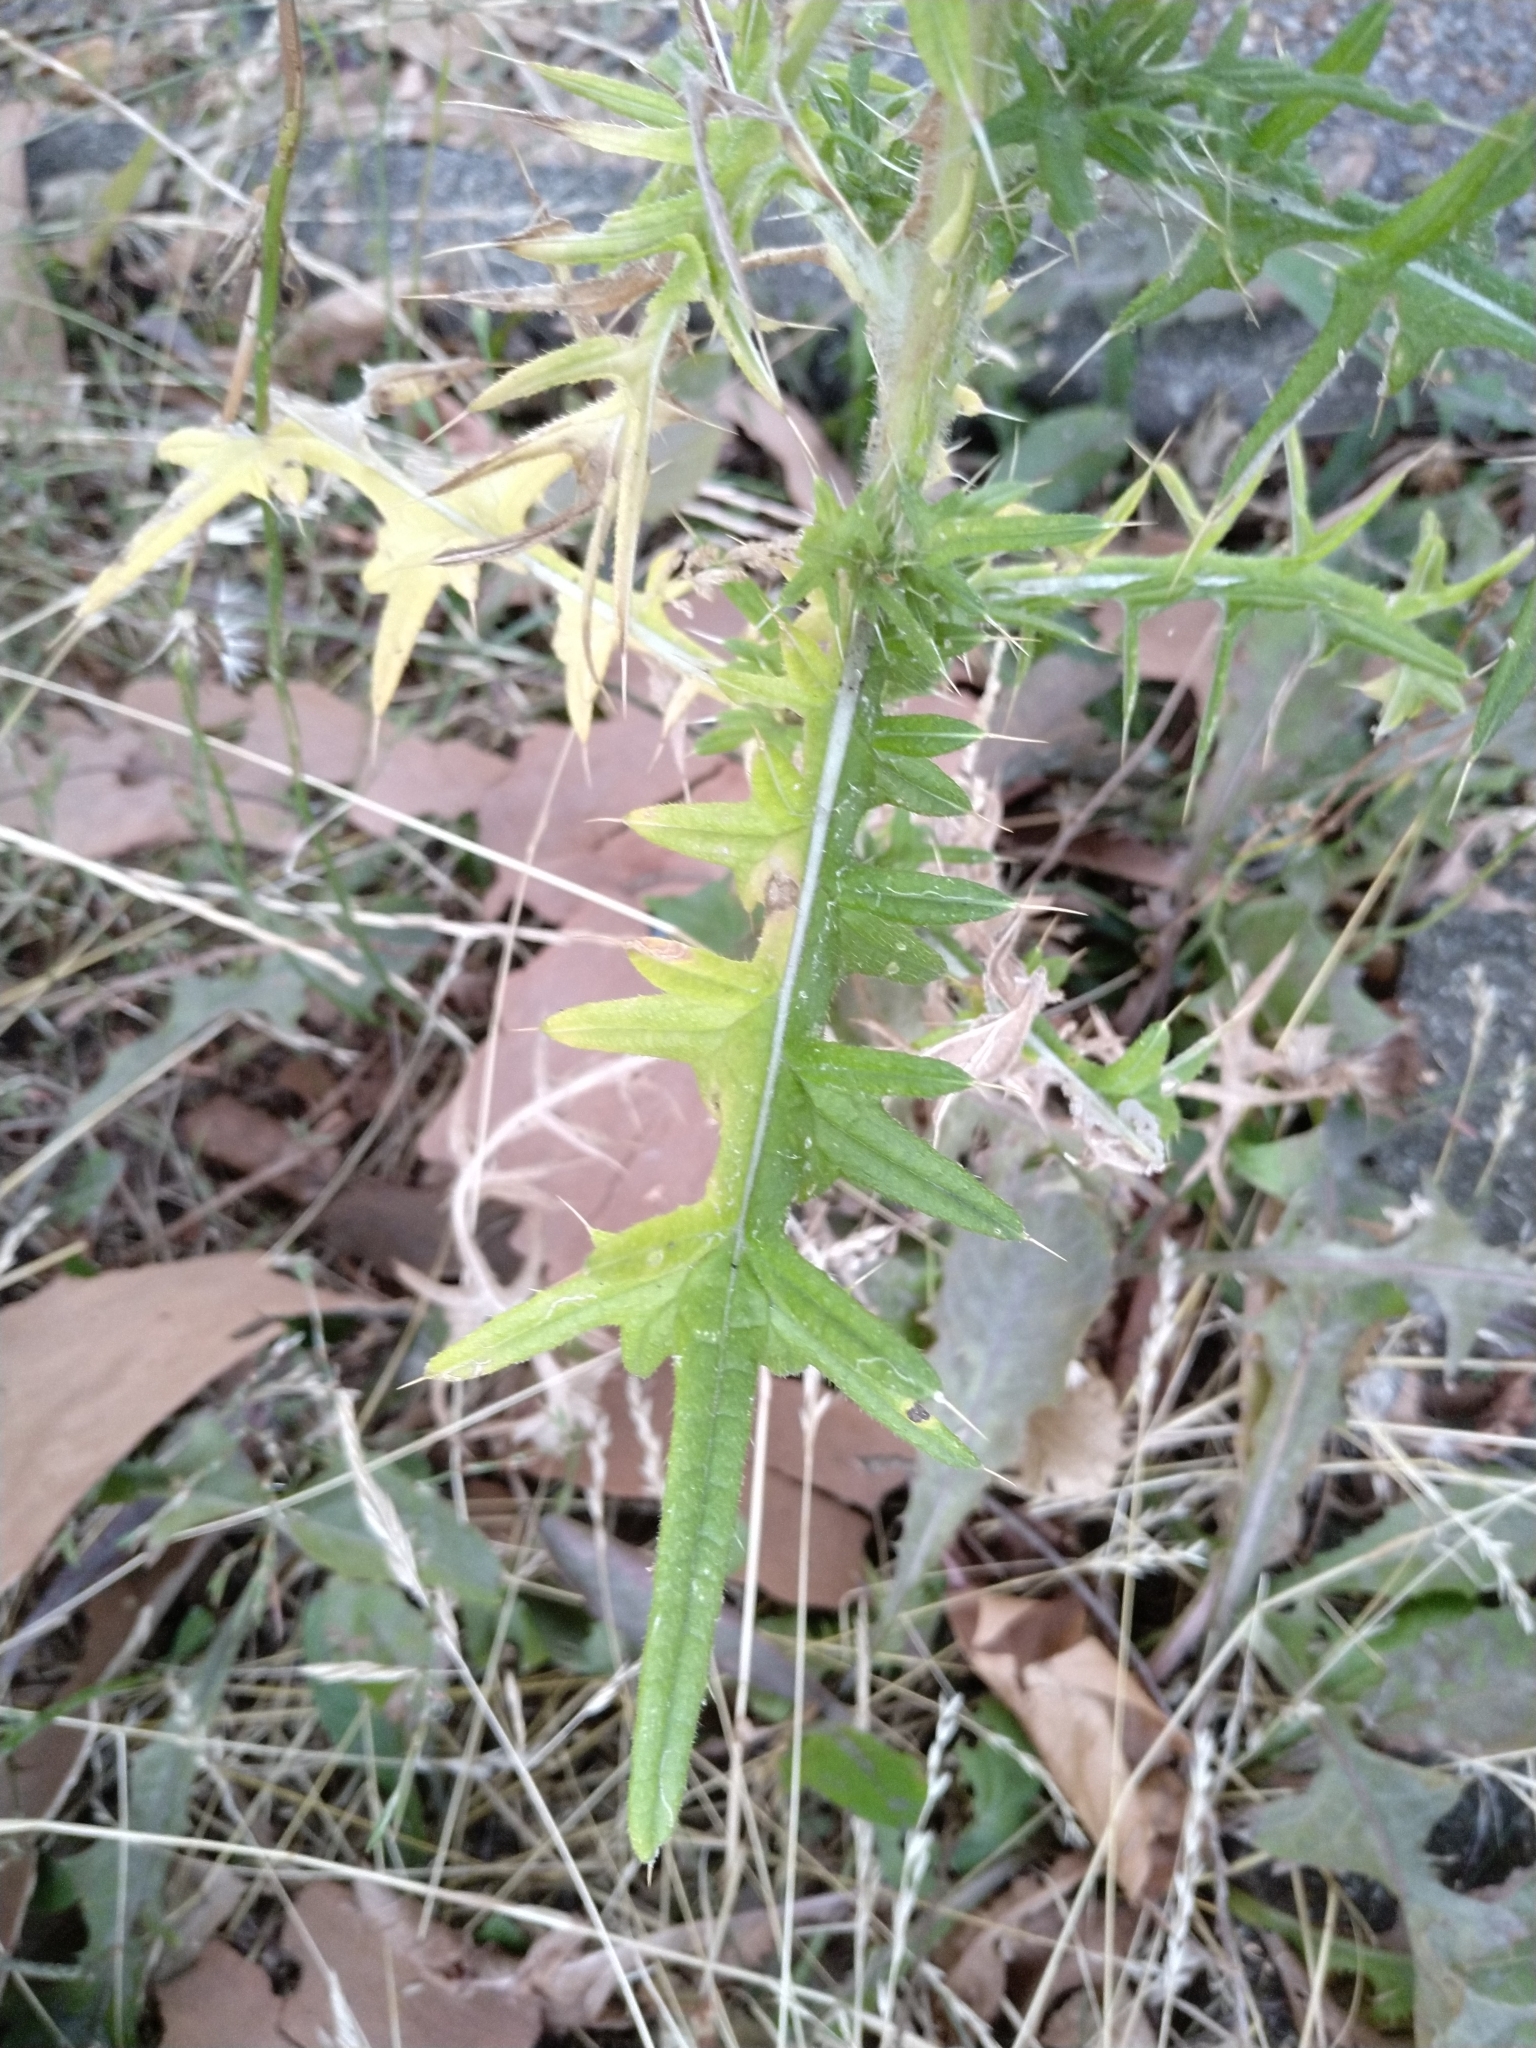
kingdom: Plantae
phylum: Tracheophyta
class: Magnoliopsida
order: Asterales
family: Asteraceae
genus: Cirsium
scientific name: Cirsium vulgare
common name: Bull thistle
